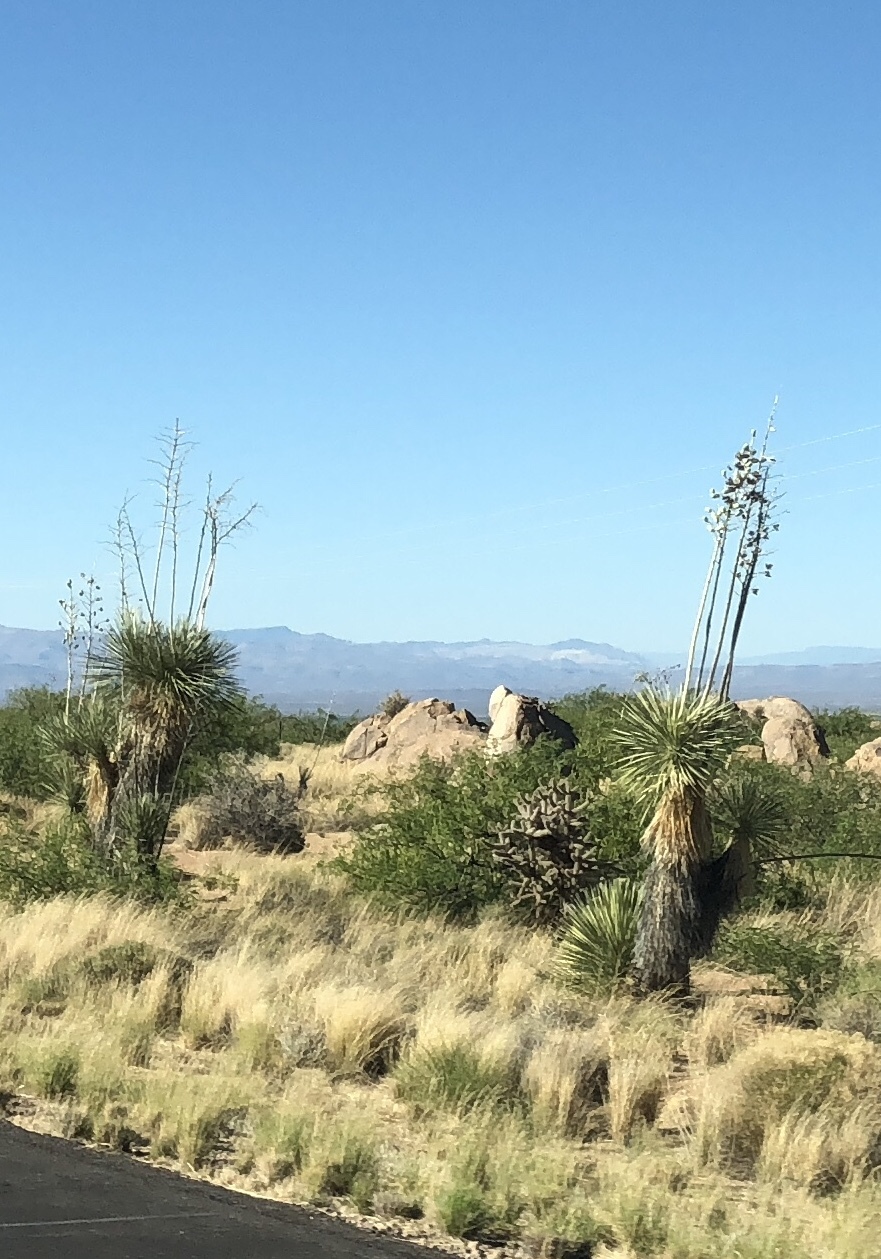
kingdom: Plantae
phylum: Tracheophyta
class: Liliopsida
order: Asparagales
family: Asparagaceae
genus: Yucca
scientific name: Yucca elata
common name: Palmella
